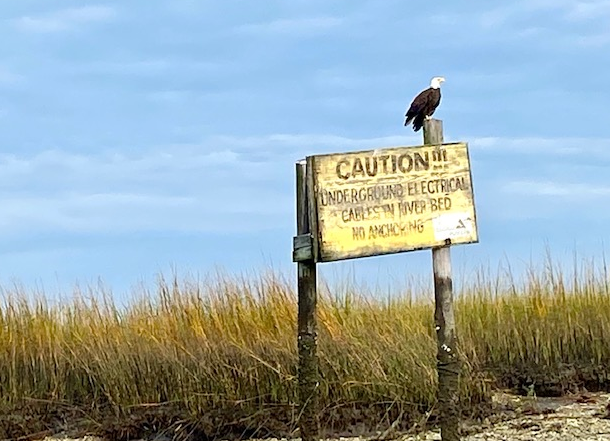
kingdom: Animalia
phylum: Chordata
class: Aves
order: Accipitriformes
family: Accipitridae
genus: Haliaeetus
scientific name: Haliaeetus leucocephalus
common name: Bald eagle
